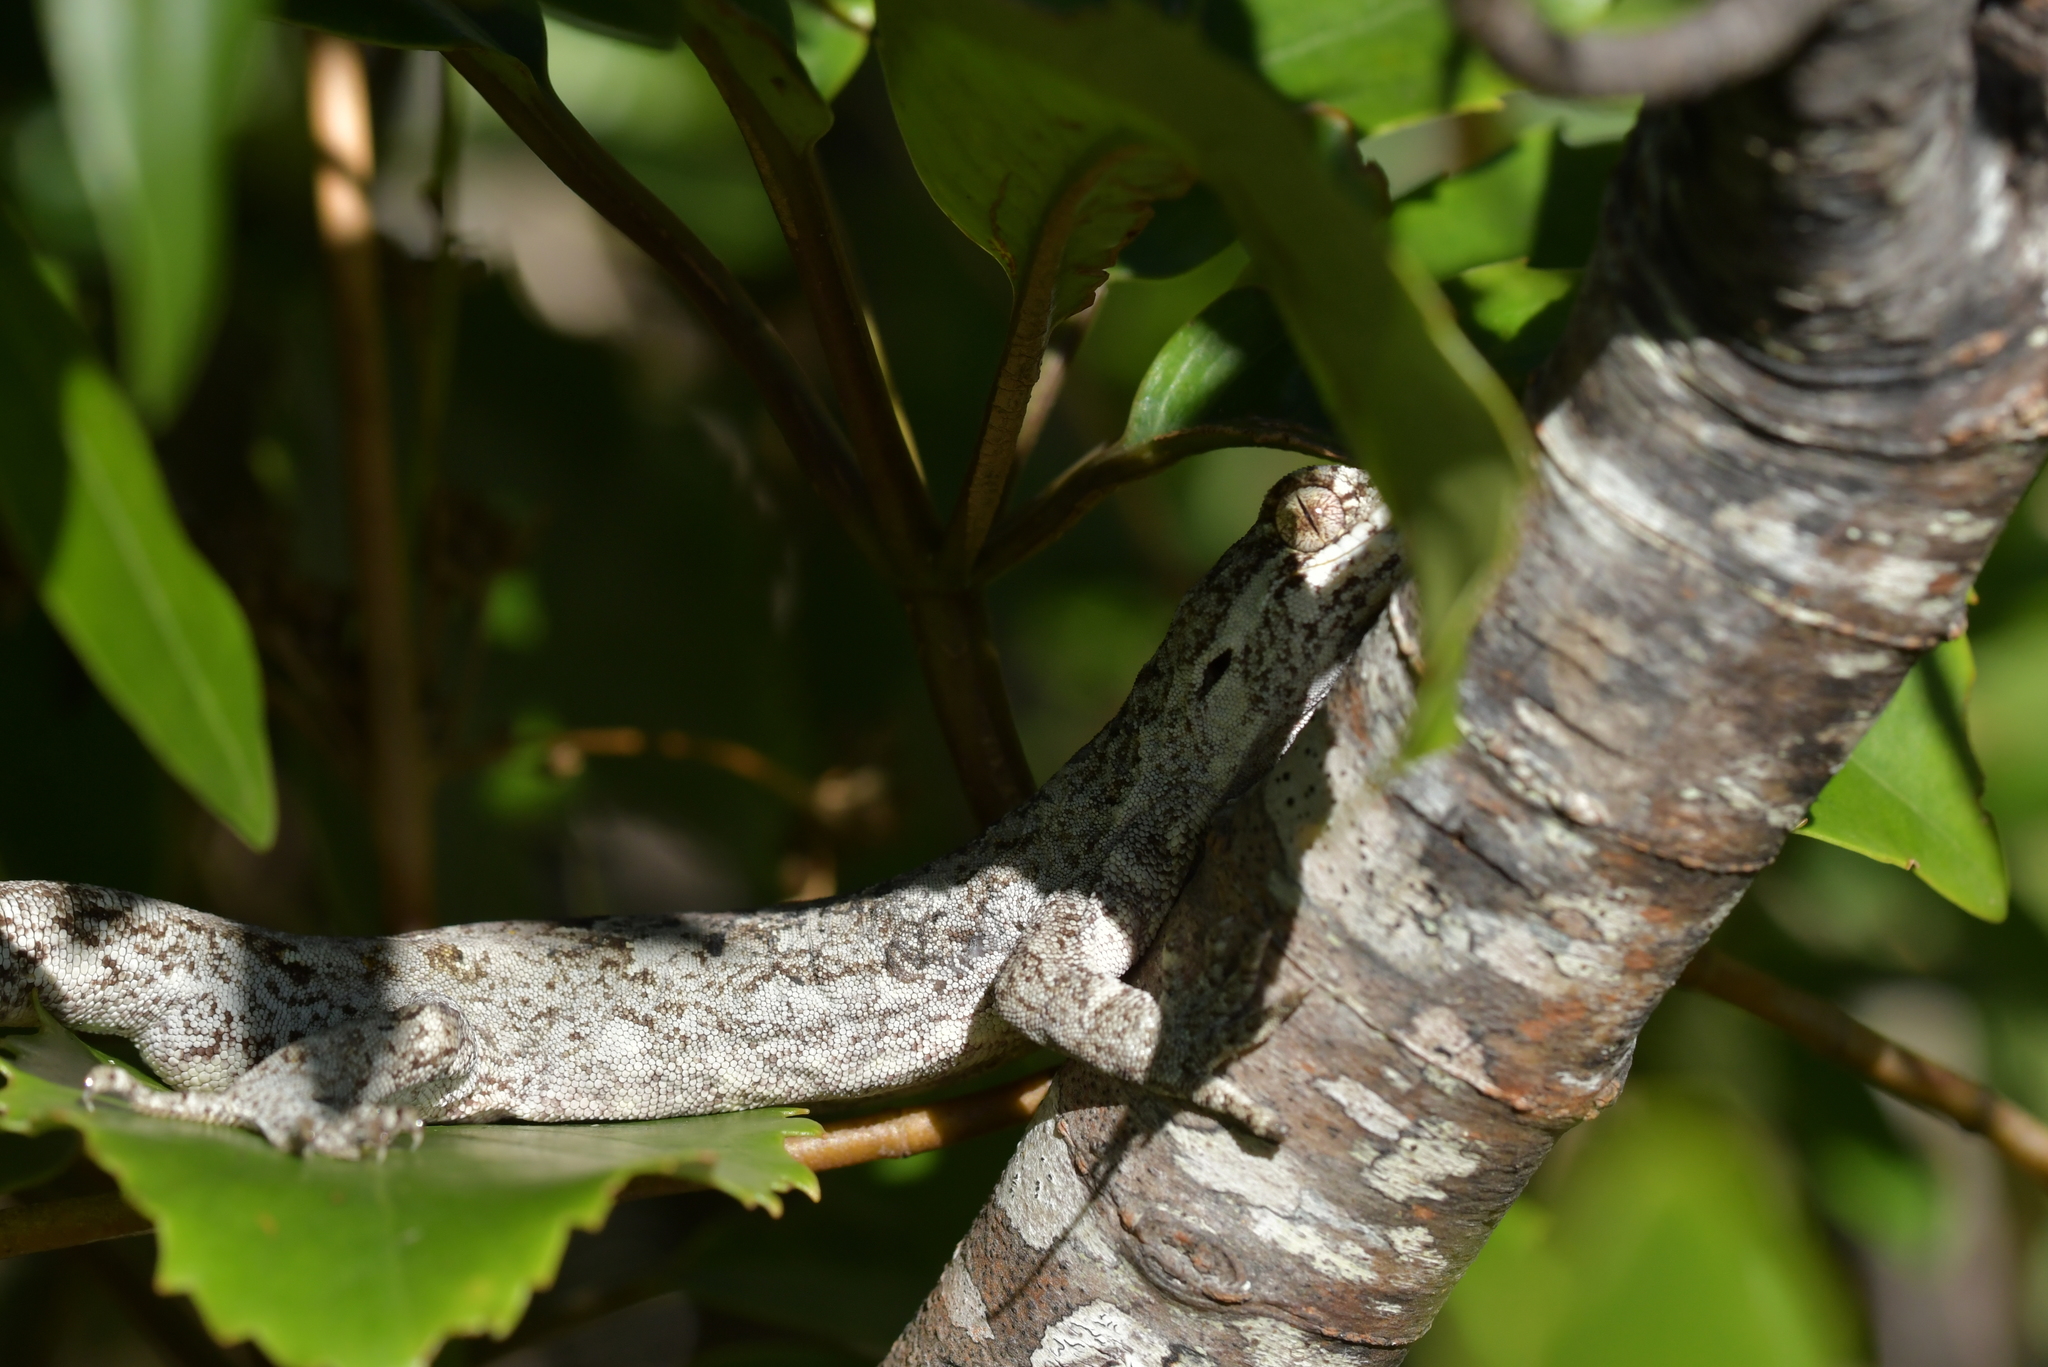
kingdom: Animalia
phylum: Chordata
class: Squamata
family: Diplodactylidae
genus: Mokopirirakau
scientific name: Mokopirirakau
